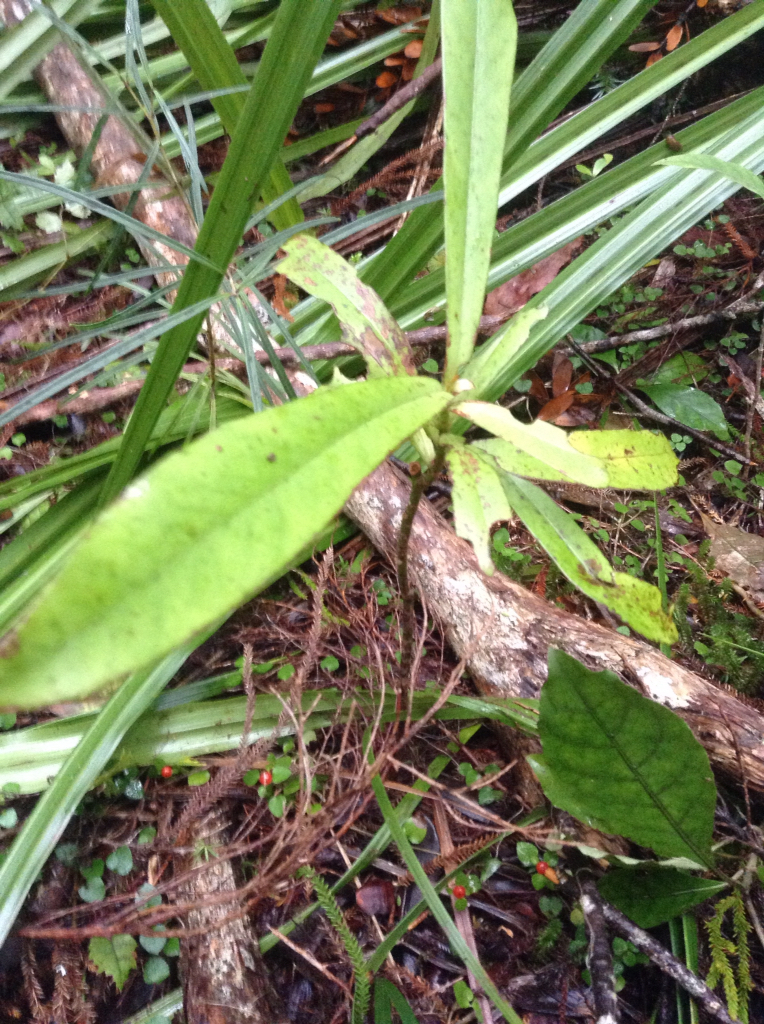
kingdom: Plantae
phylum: Tracheophyta
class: Magnoliopsida
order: Ericales
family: Primulaceae
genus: Myrsine
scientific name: Myrsine salicina
